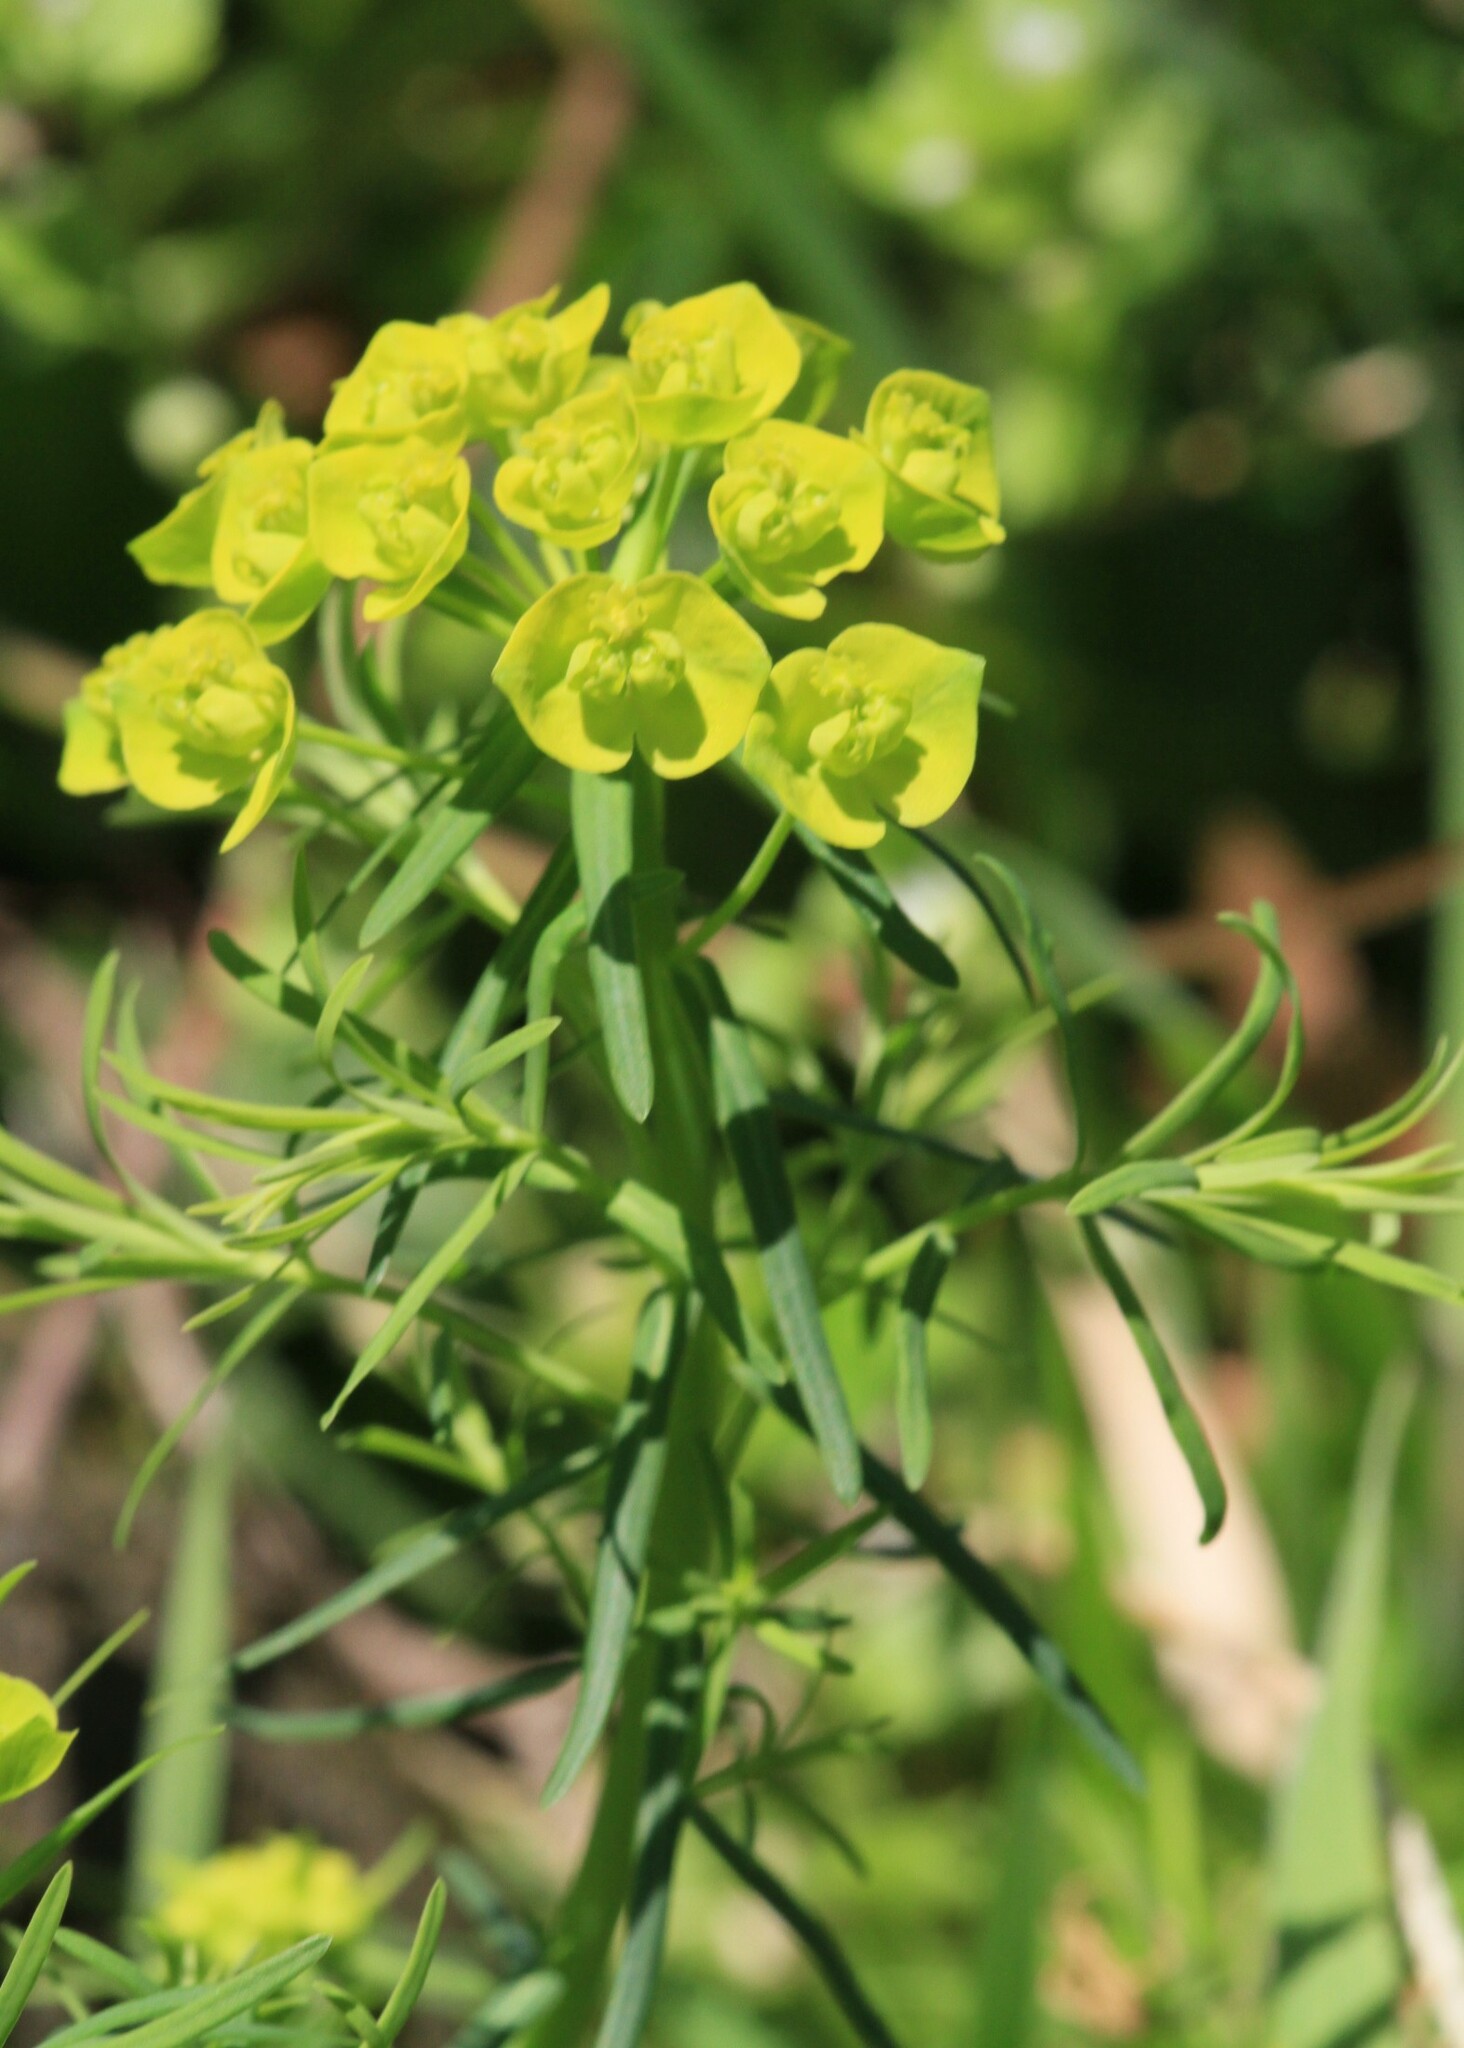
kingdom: Plantae
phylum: Tracheophyta
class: Magnoliopsida
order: Malpighiales
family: Euphorbiaceae
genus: Euphorbia
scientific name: Euphorbia cyparissias
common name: Cypress spurge
